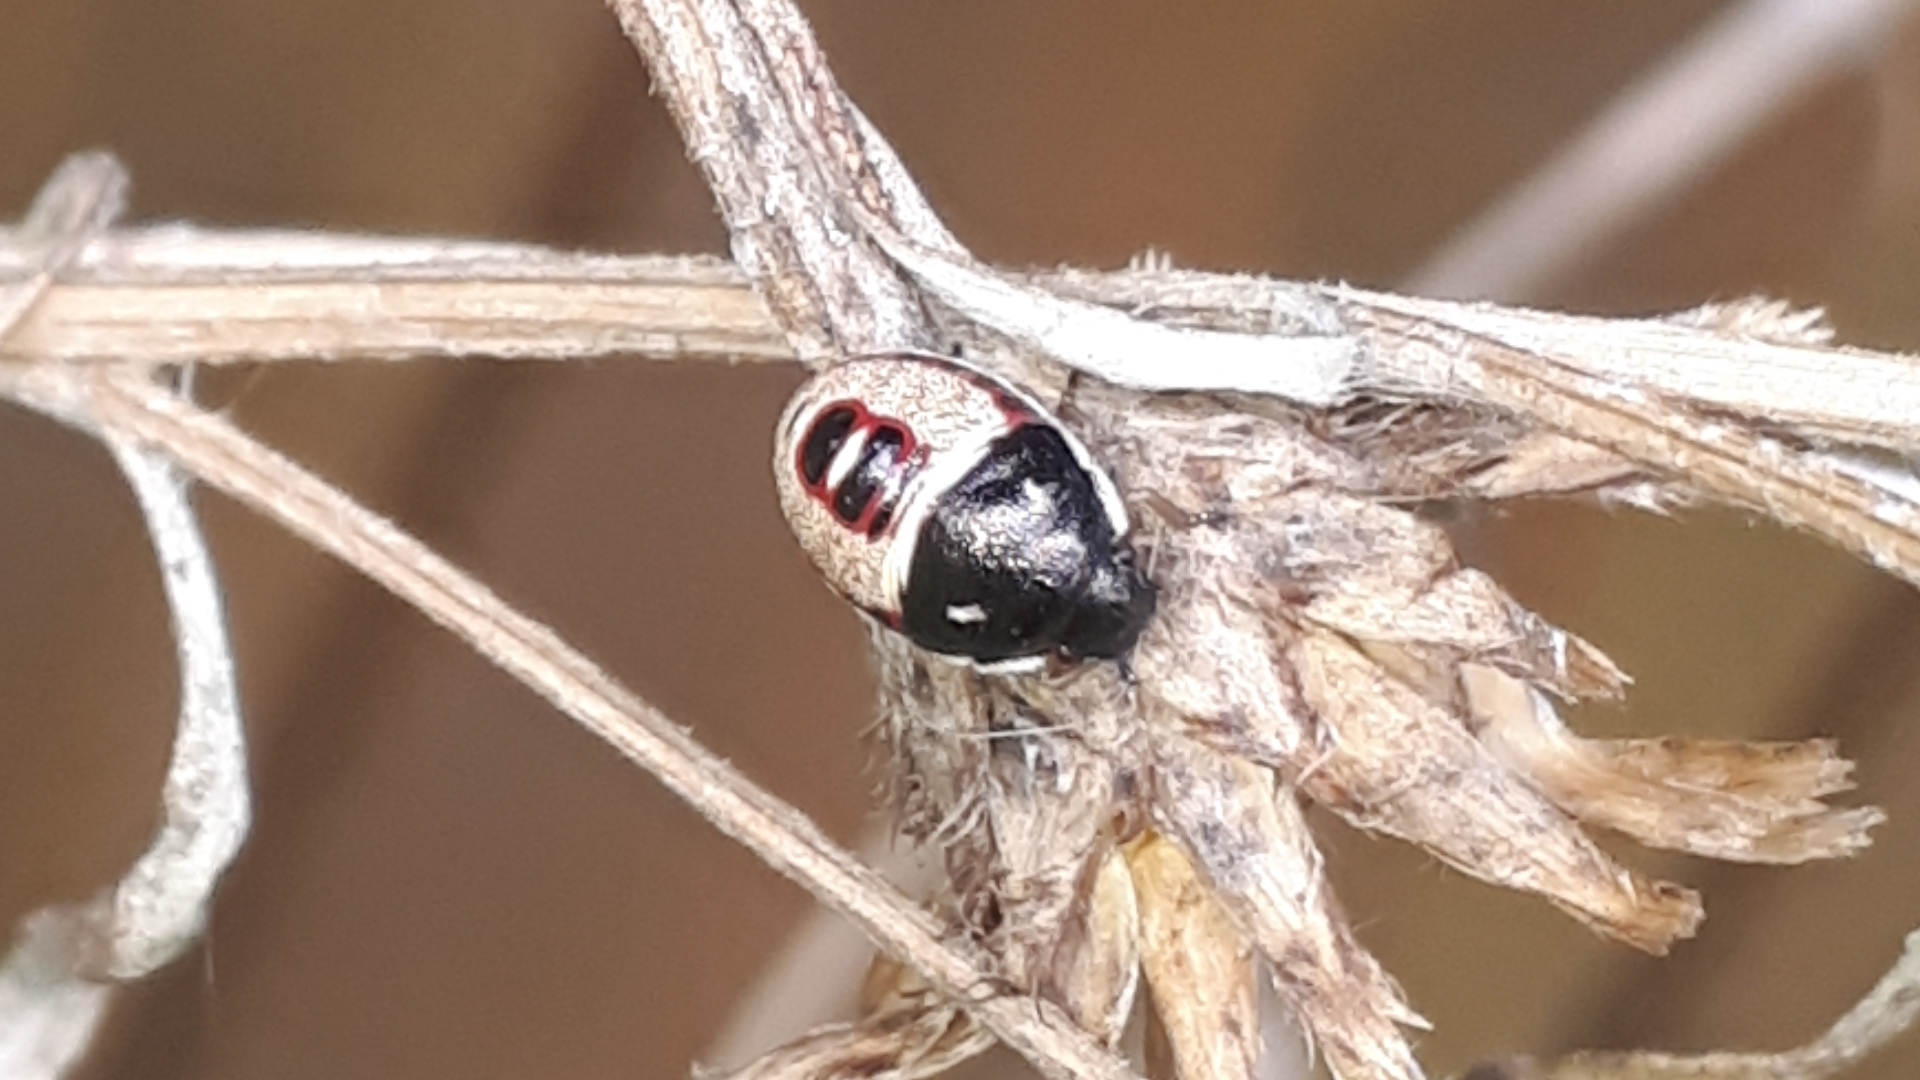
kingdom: Animalia
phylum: Arthropoda
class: Insecta
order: Hemiptera
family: Pentatomidae
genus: Holcostethus
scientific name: Holcostethus sphacelatus
